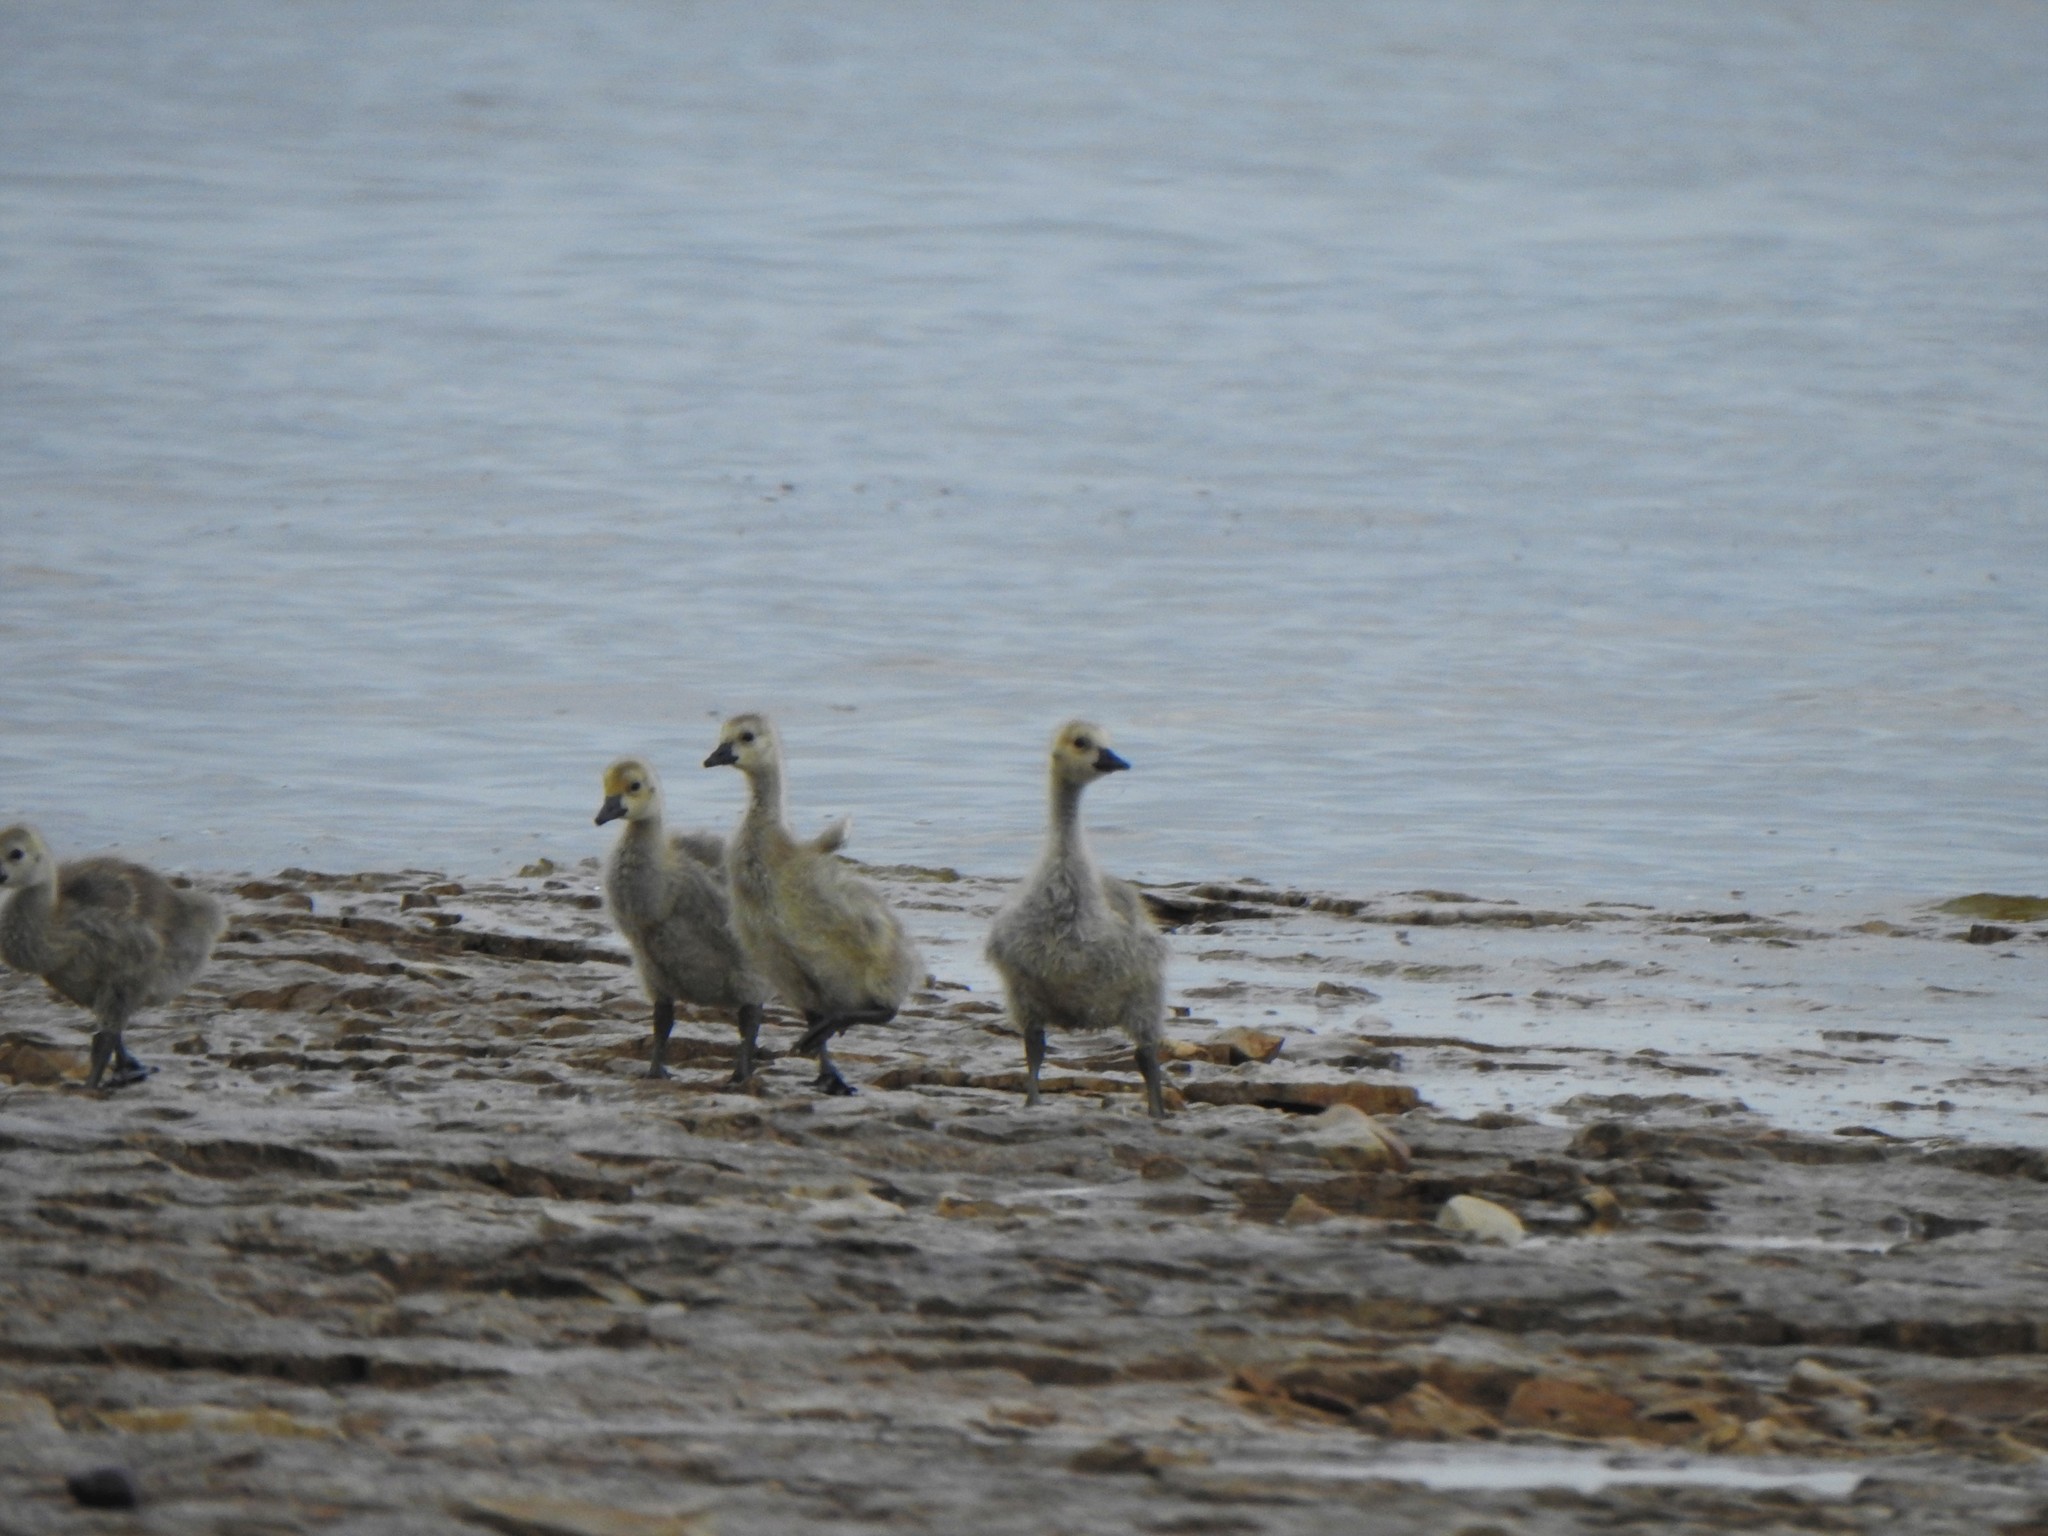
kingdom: Animalia
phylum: Chordata
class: Aves
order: Anseriformes
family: Anatidae
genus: Branta
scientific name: Branta canadensis
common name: Canada goose
